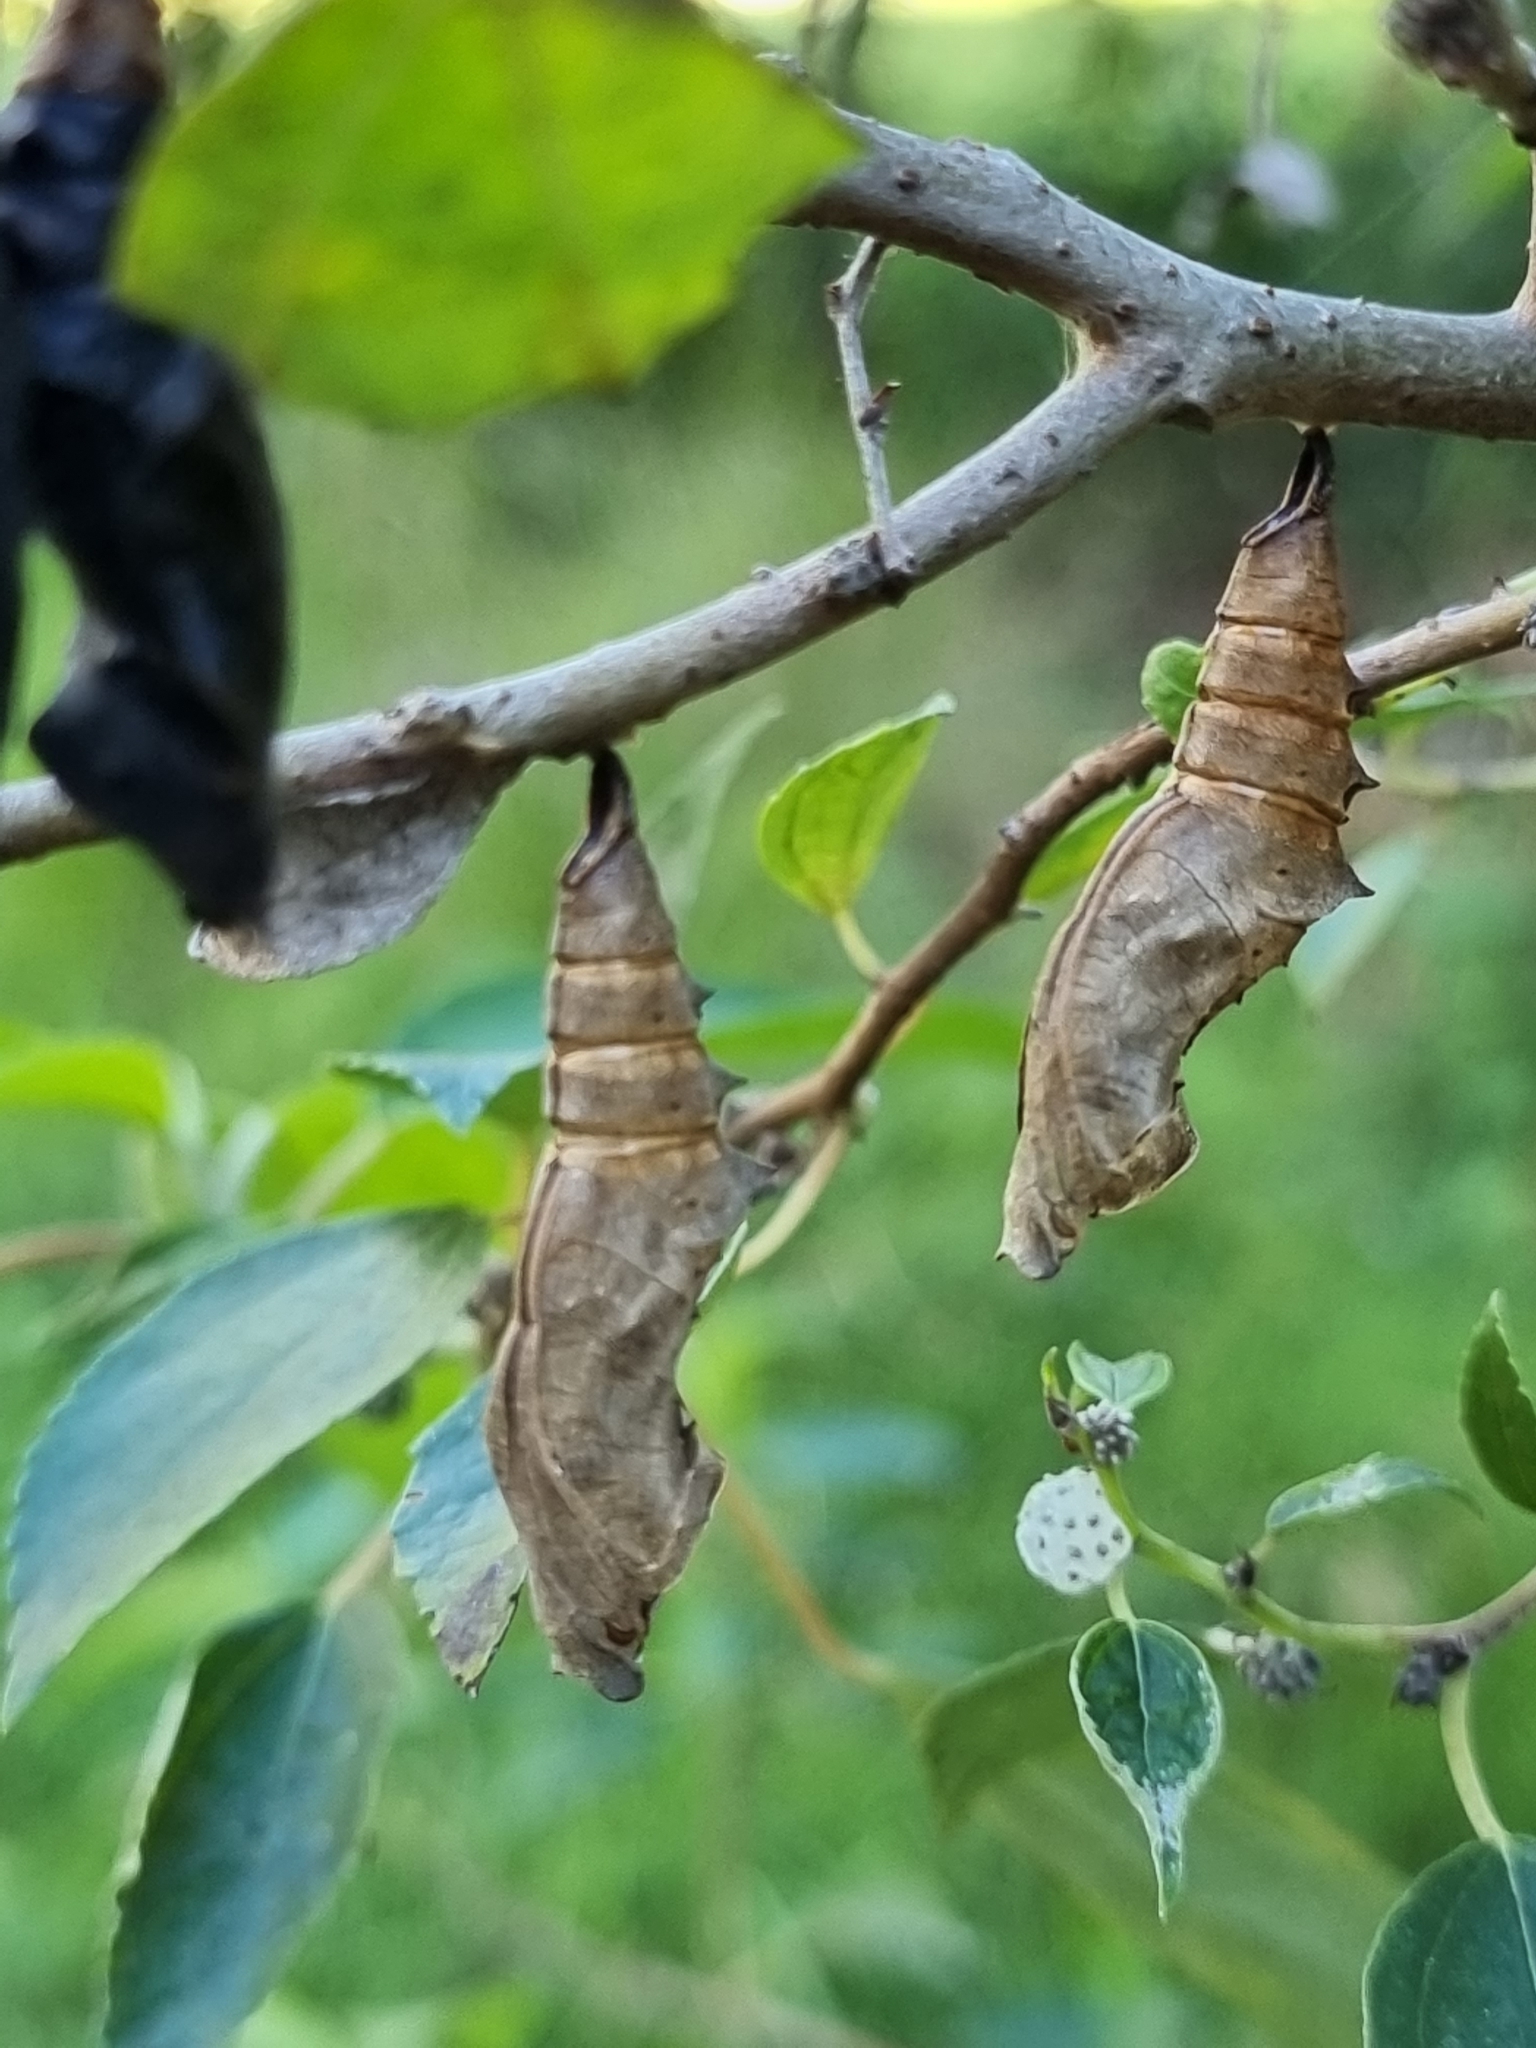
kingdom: Animalia
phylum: Arthropoda
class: Insecta
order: Lepidoptera
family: Nymphalidae
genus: Mynes
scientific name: Mynes geoffroyi
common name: Jezebel nymph
